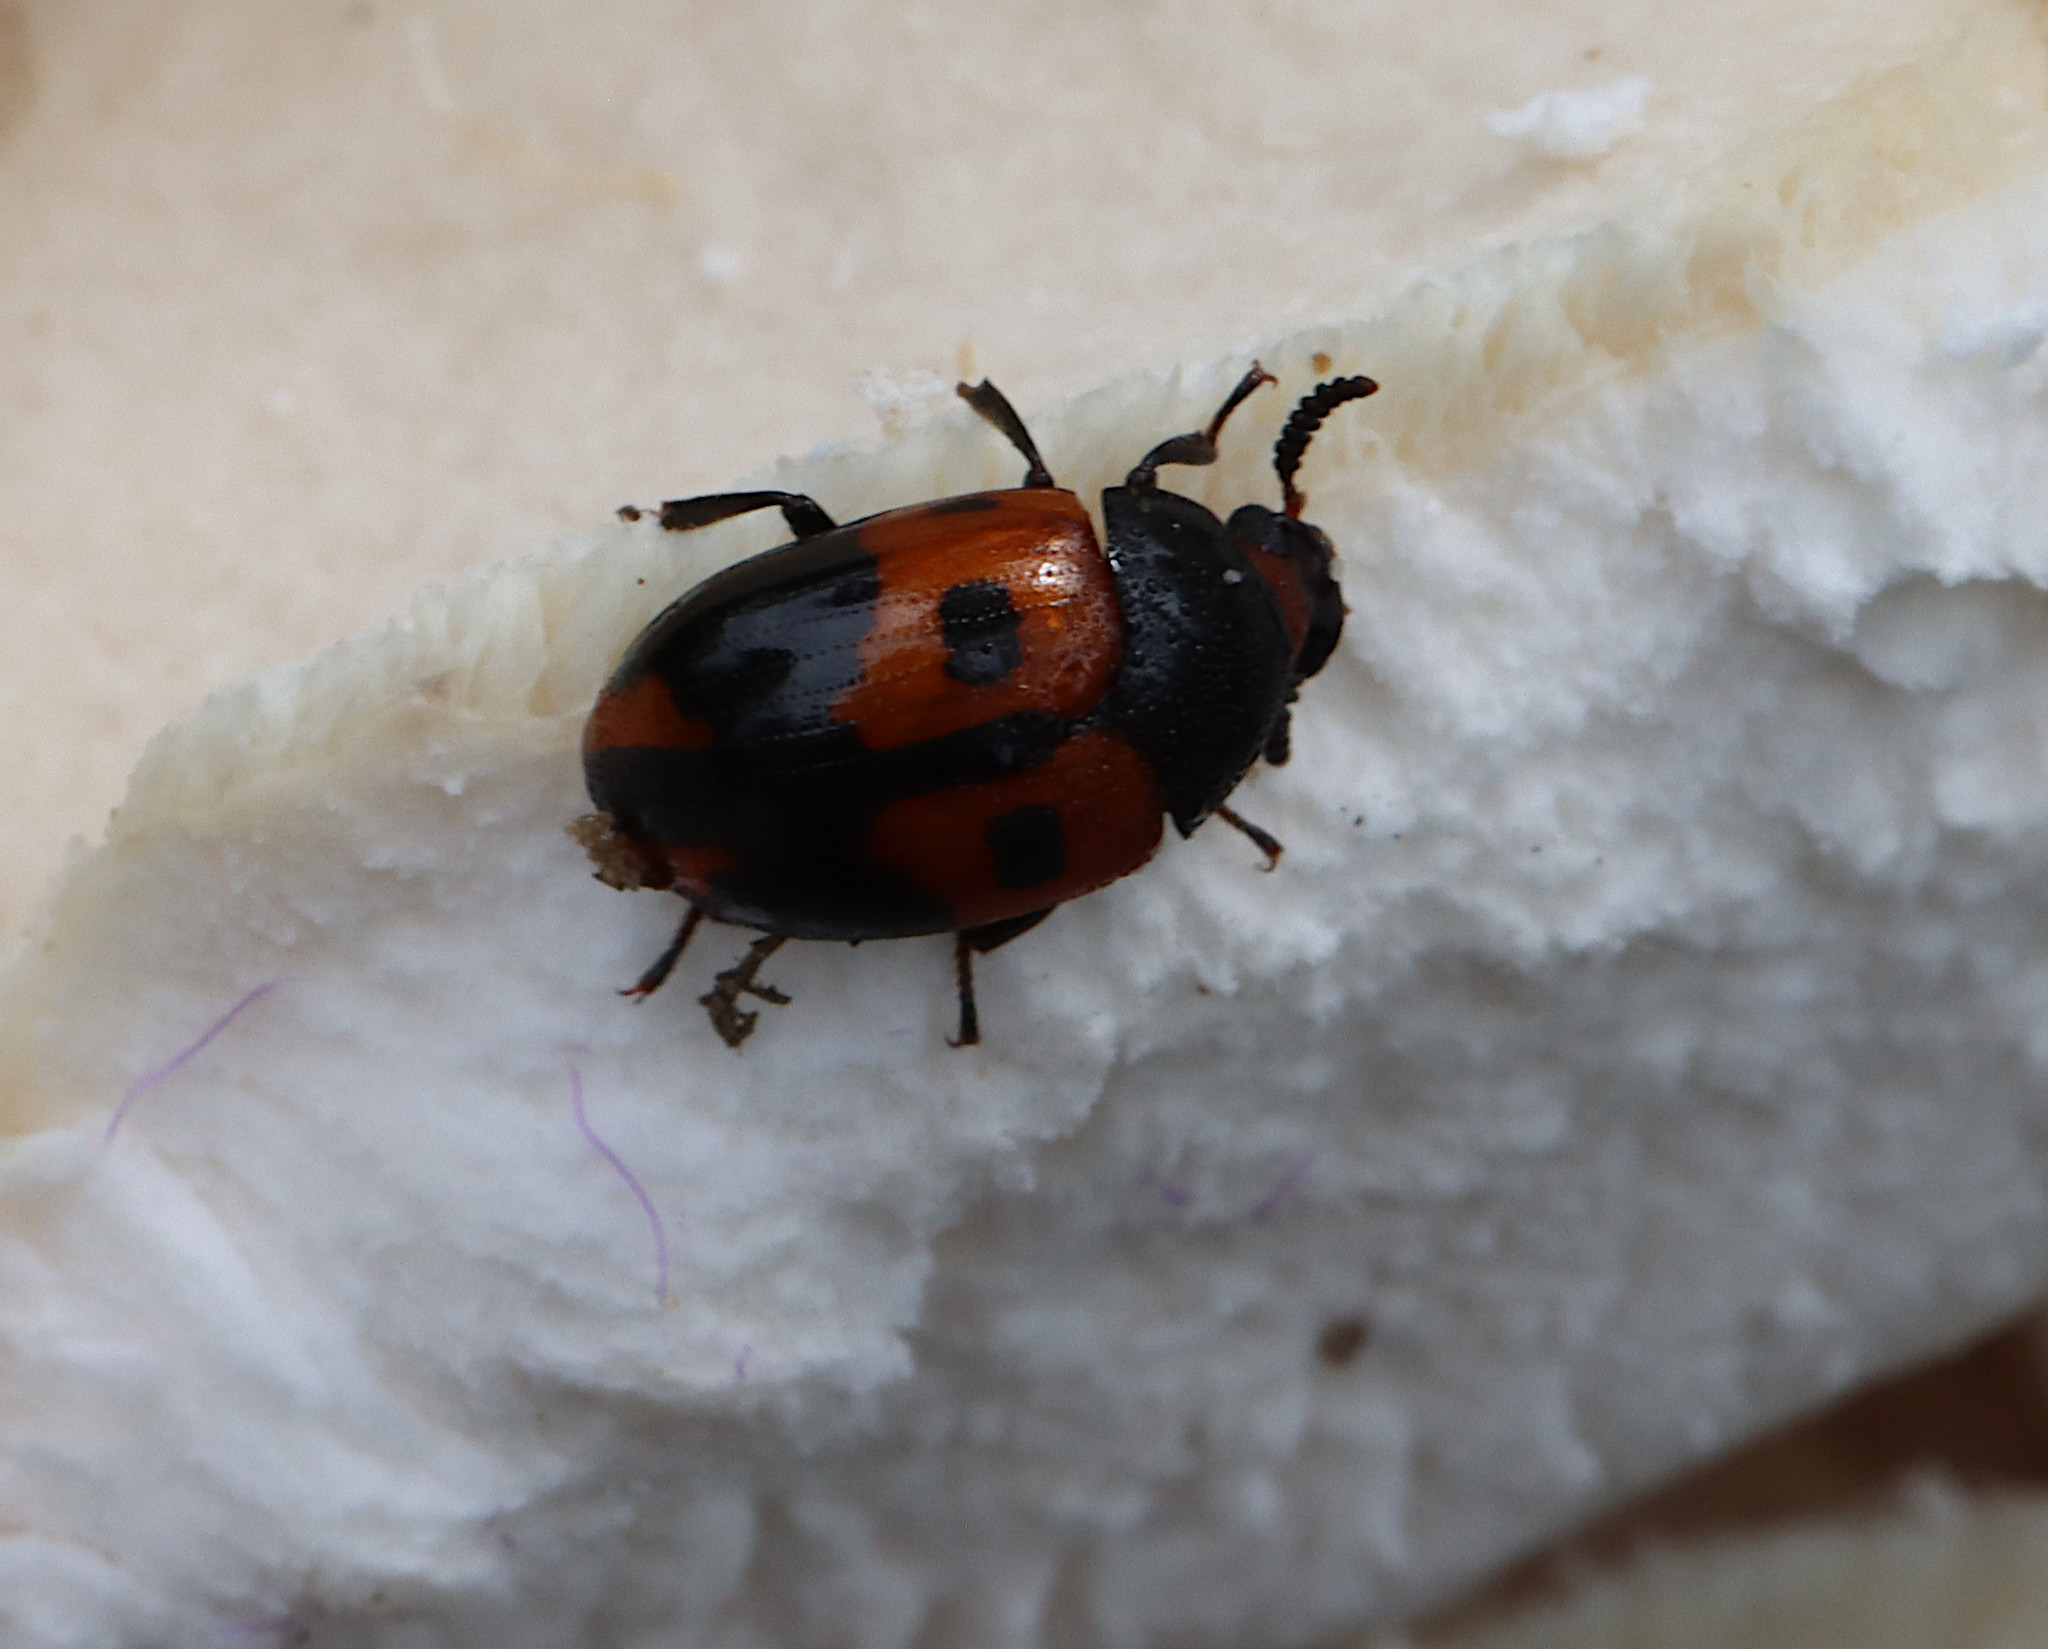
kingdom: Animalia
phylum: Arthropoda
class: Insecta
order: Coleoptera
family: Tenebrionidae
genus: Diaperis
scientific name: Diaperis maculata
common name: Darkling beetle
